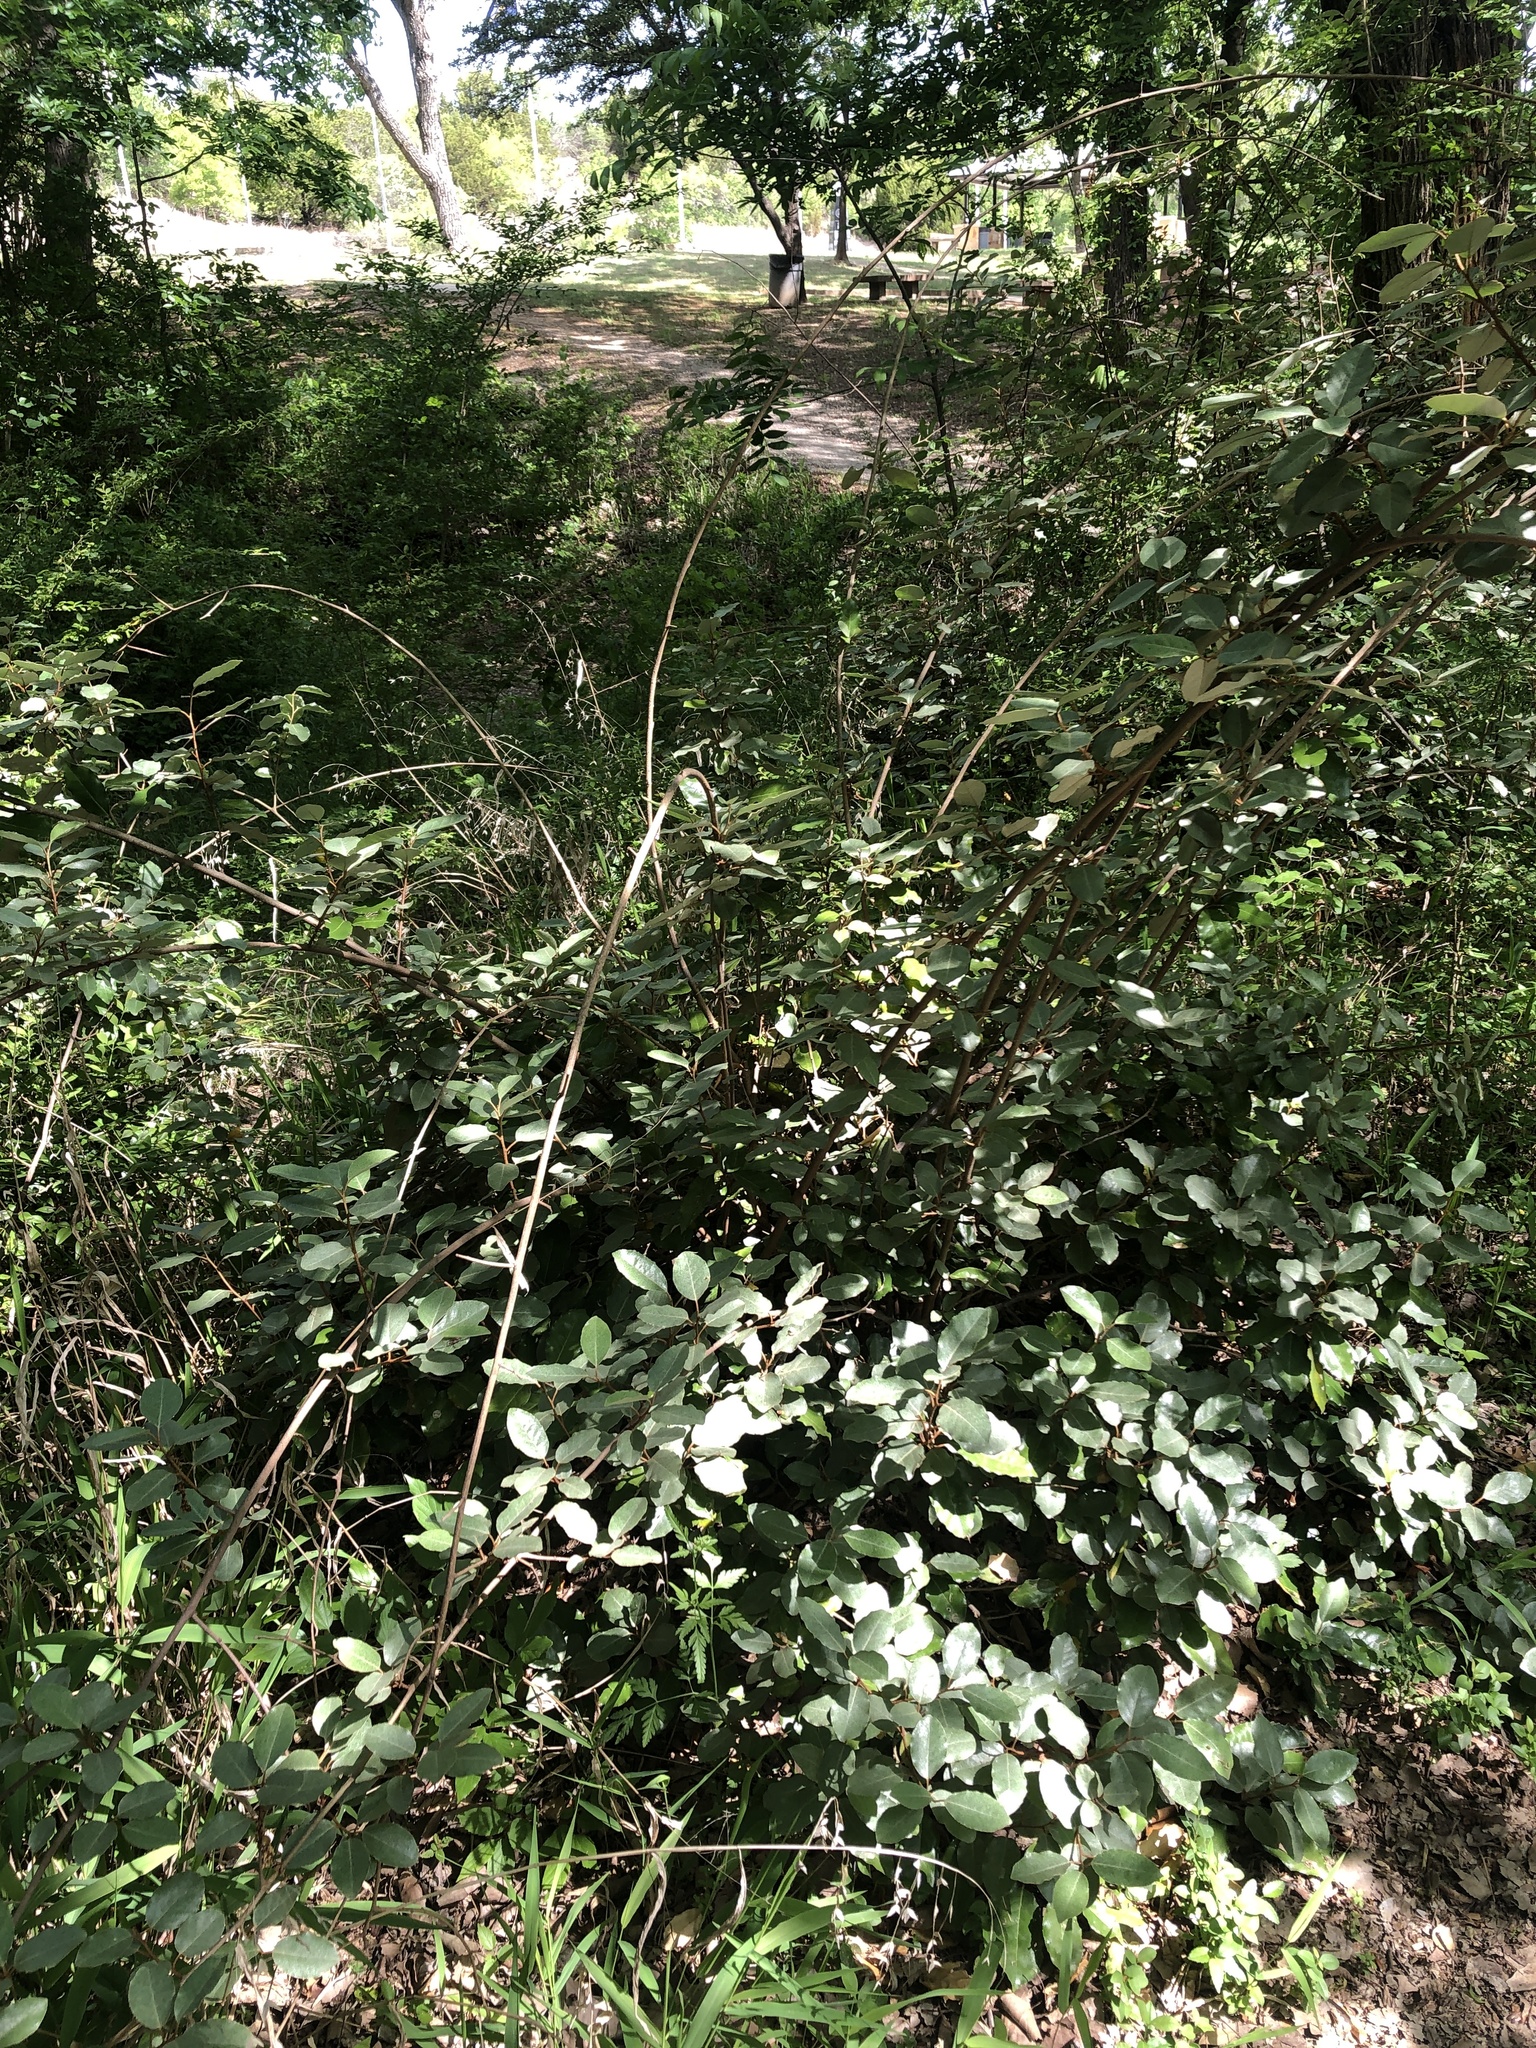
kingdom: Plantae
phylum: Tracheophyta
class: Magnoliopsida
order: Rosales
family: Elaeagnaceae
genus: Elaeagnus
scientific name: Elaeagnus pungens
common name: Spiny oleaster
